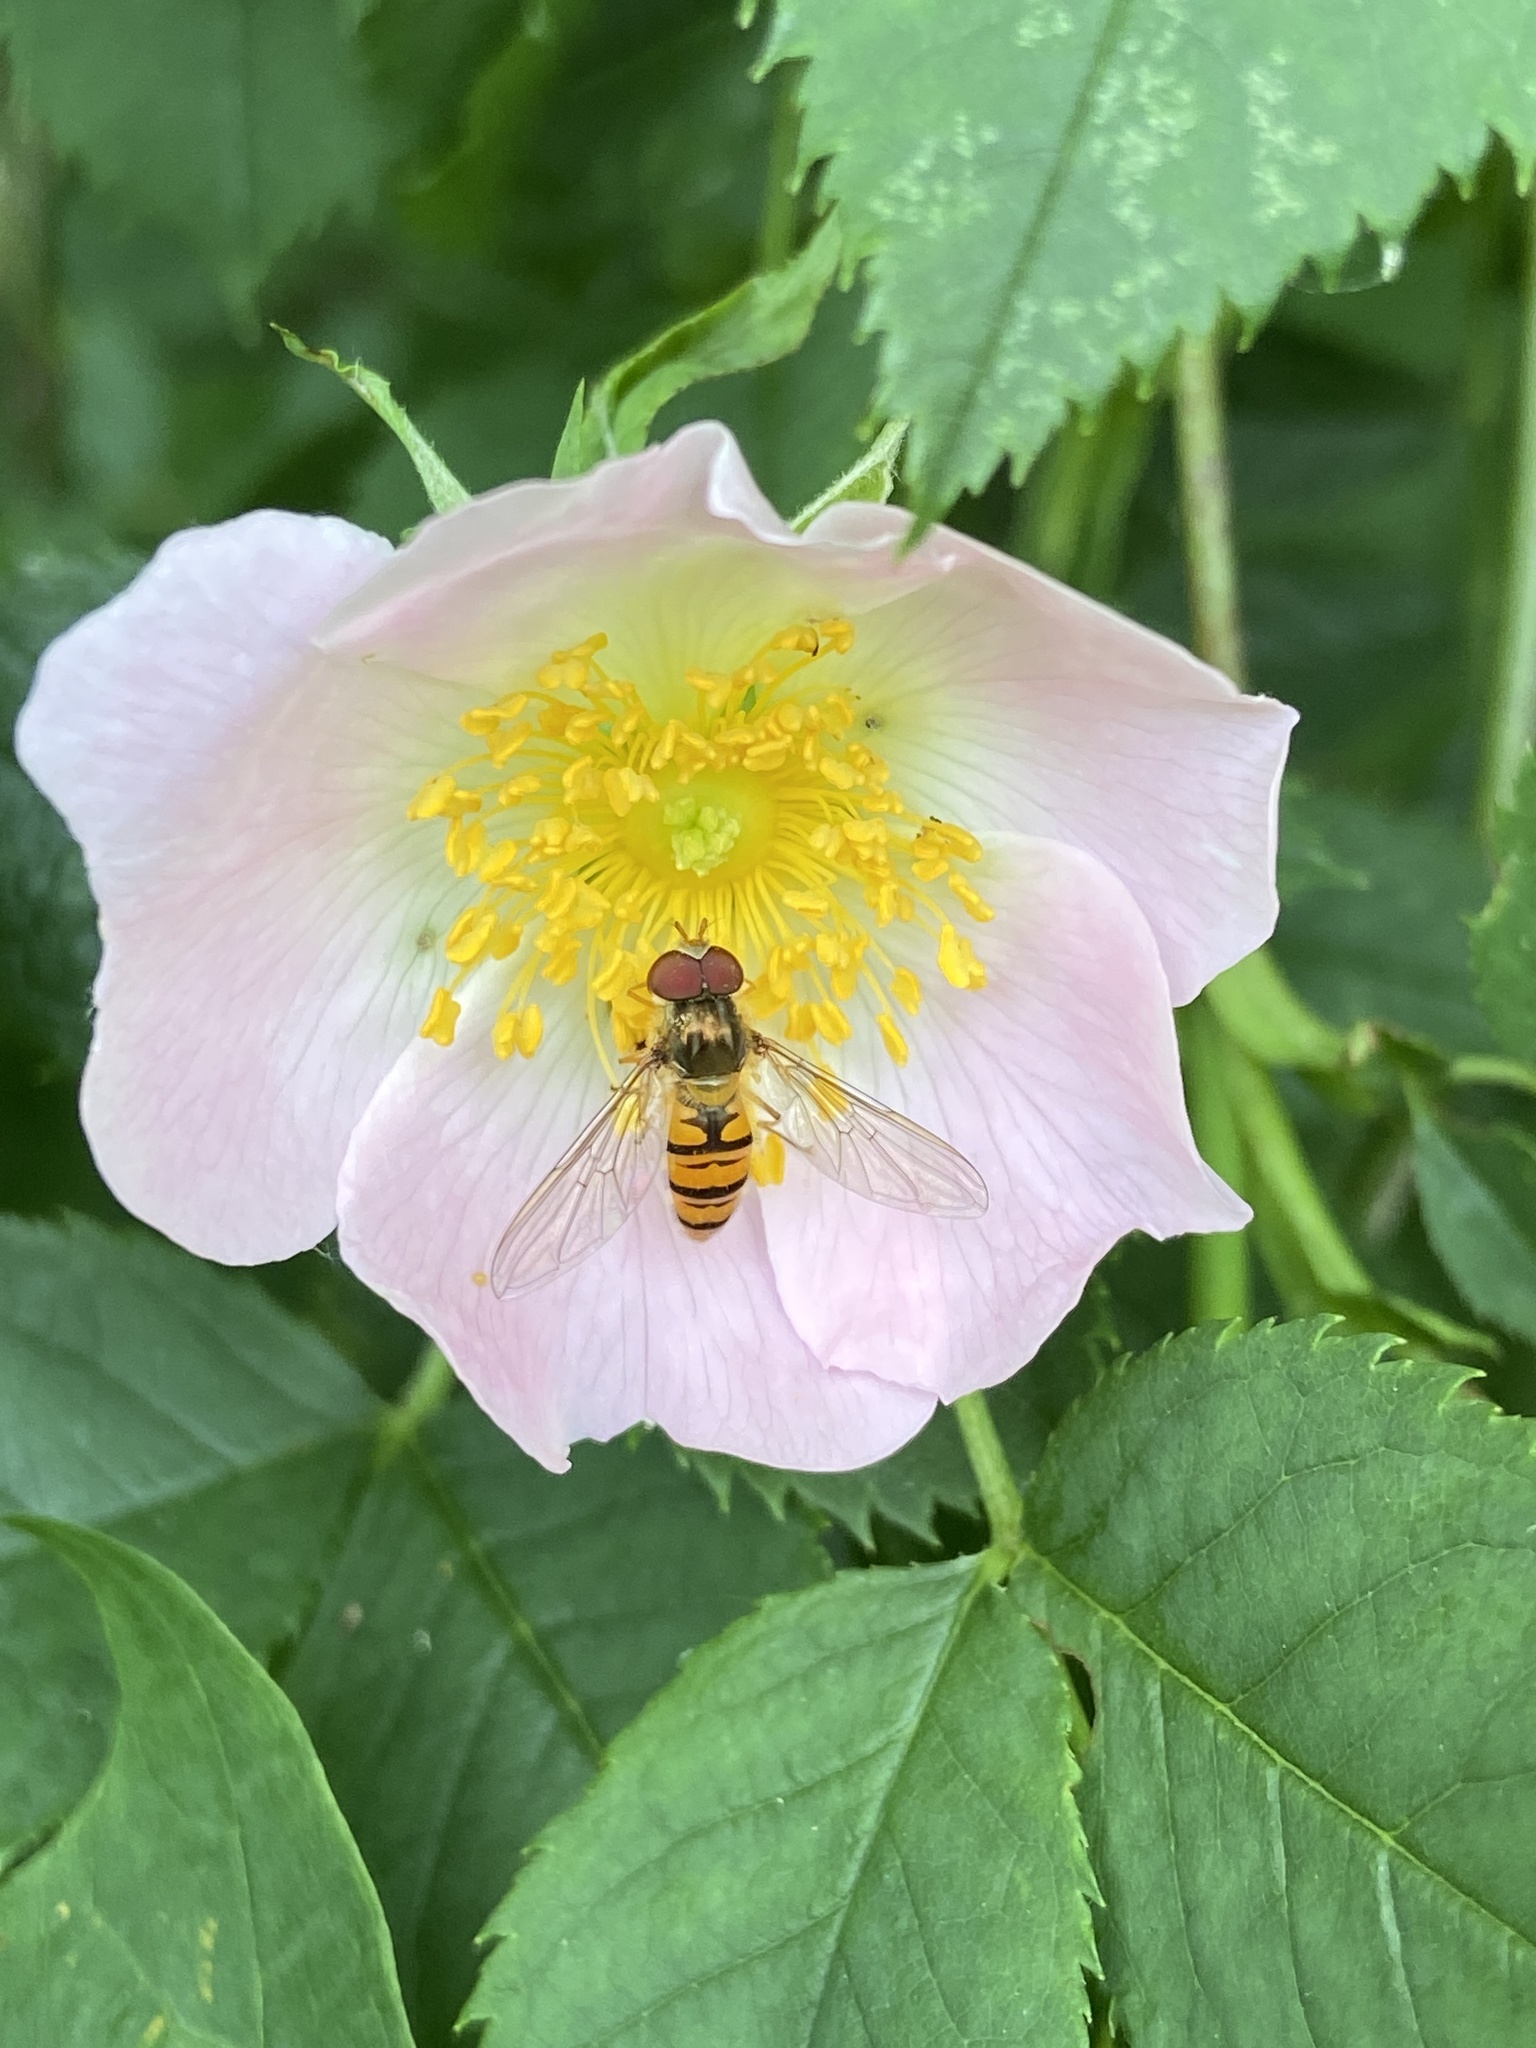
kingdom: Animalia
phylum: Arthropoda
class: Insecta
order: Diptera
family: Syrphidae
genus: Episyrphus
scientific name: Episyrphus balteatus
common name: Marmalade hoverfly
